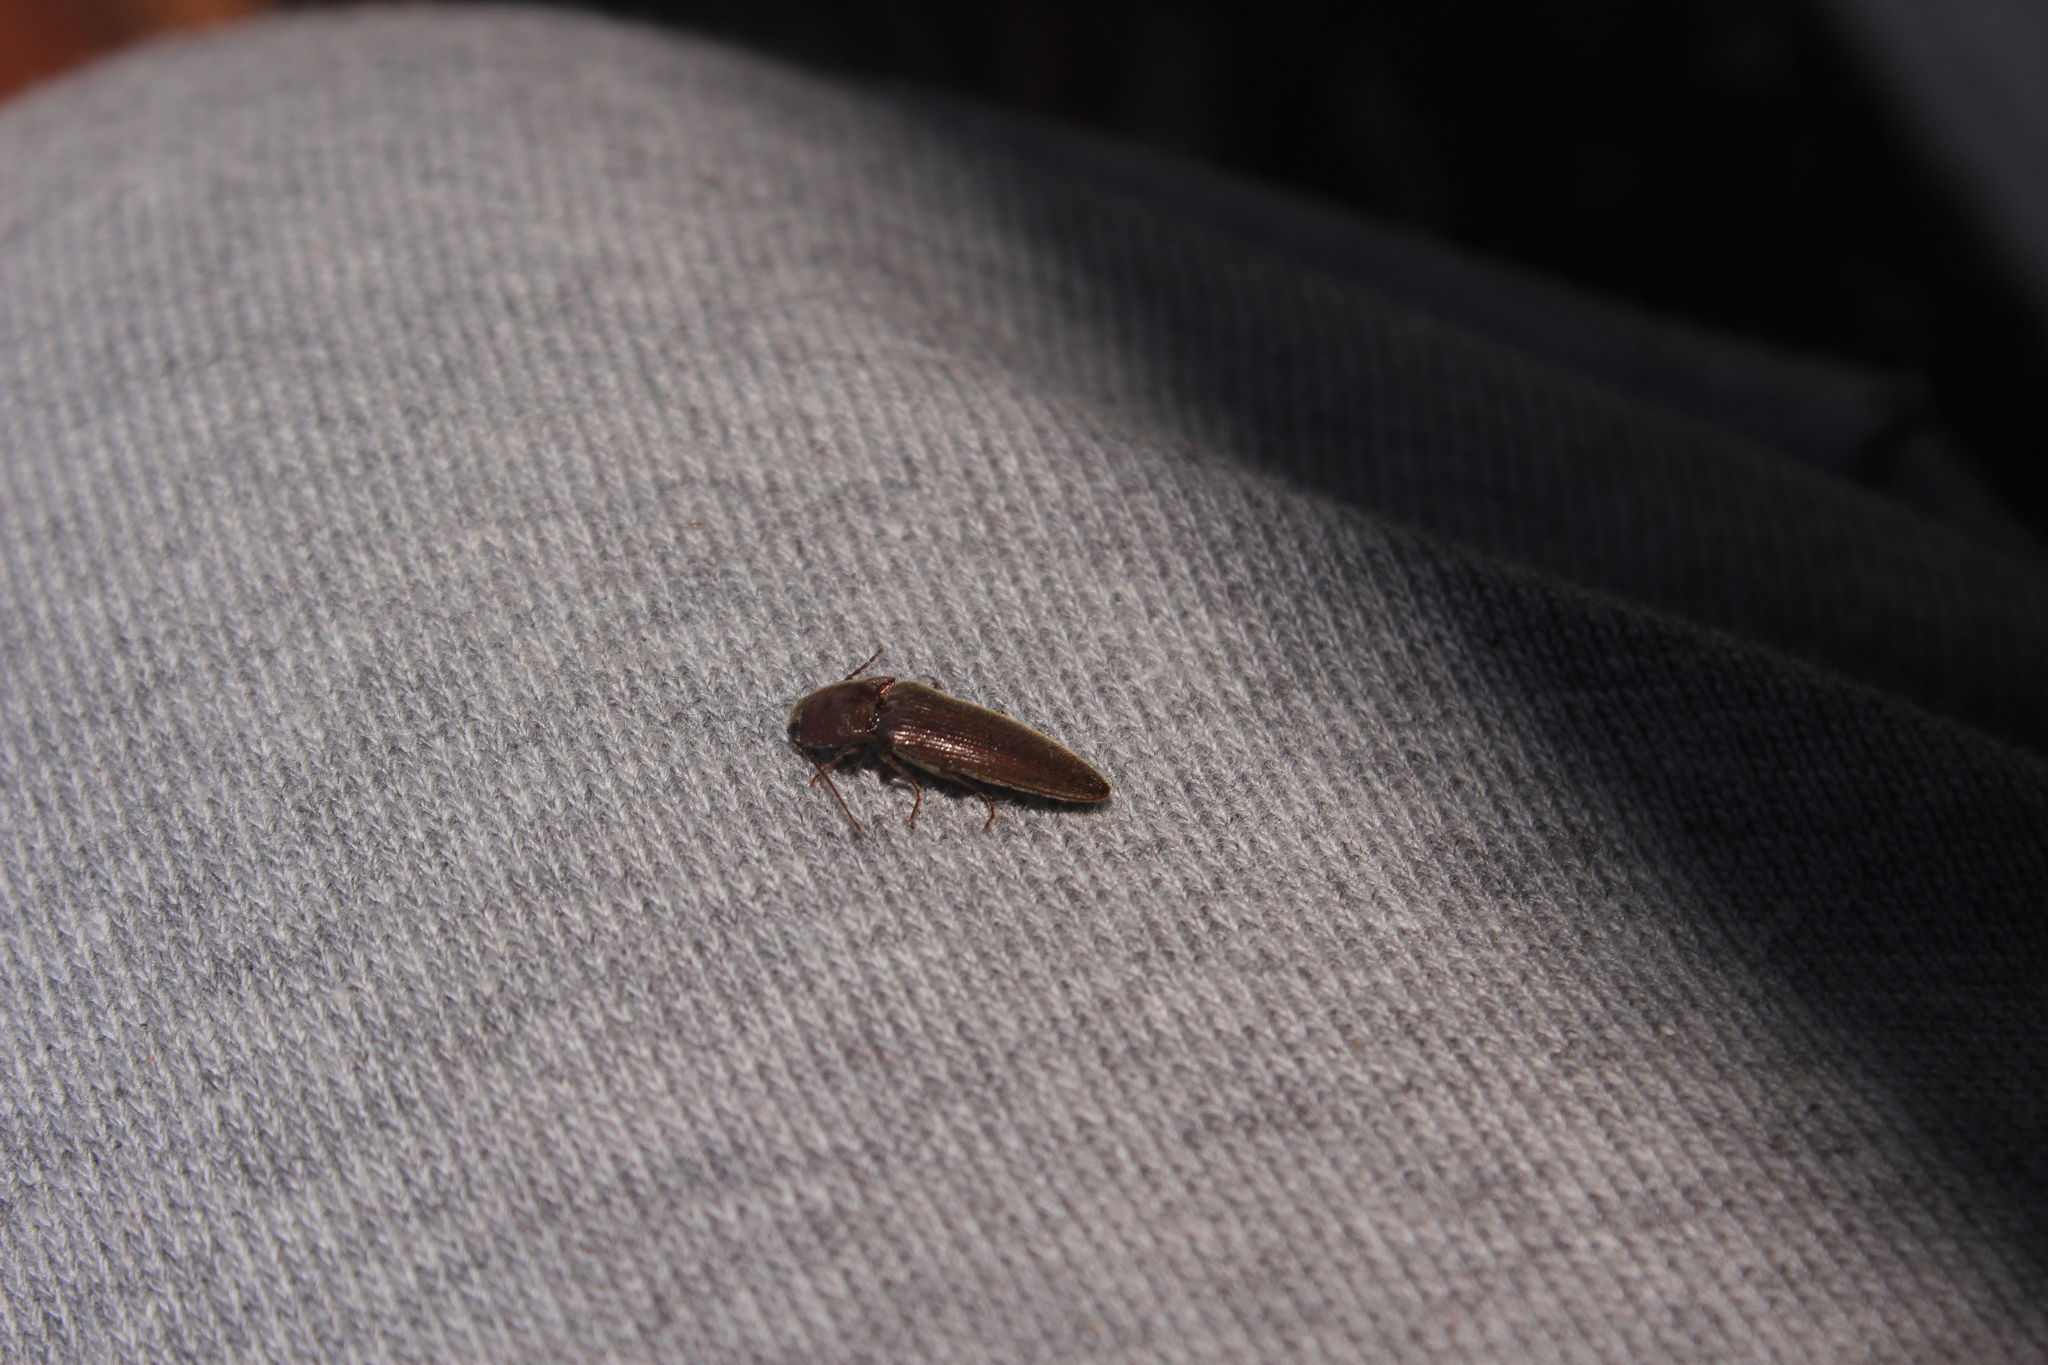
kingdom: Animalia
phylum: Arthropoda
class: Insecta
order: Coleoptera
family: Elateridae
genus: Melanotus
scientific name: Melanotus
